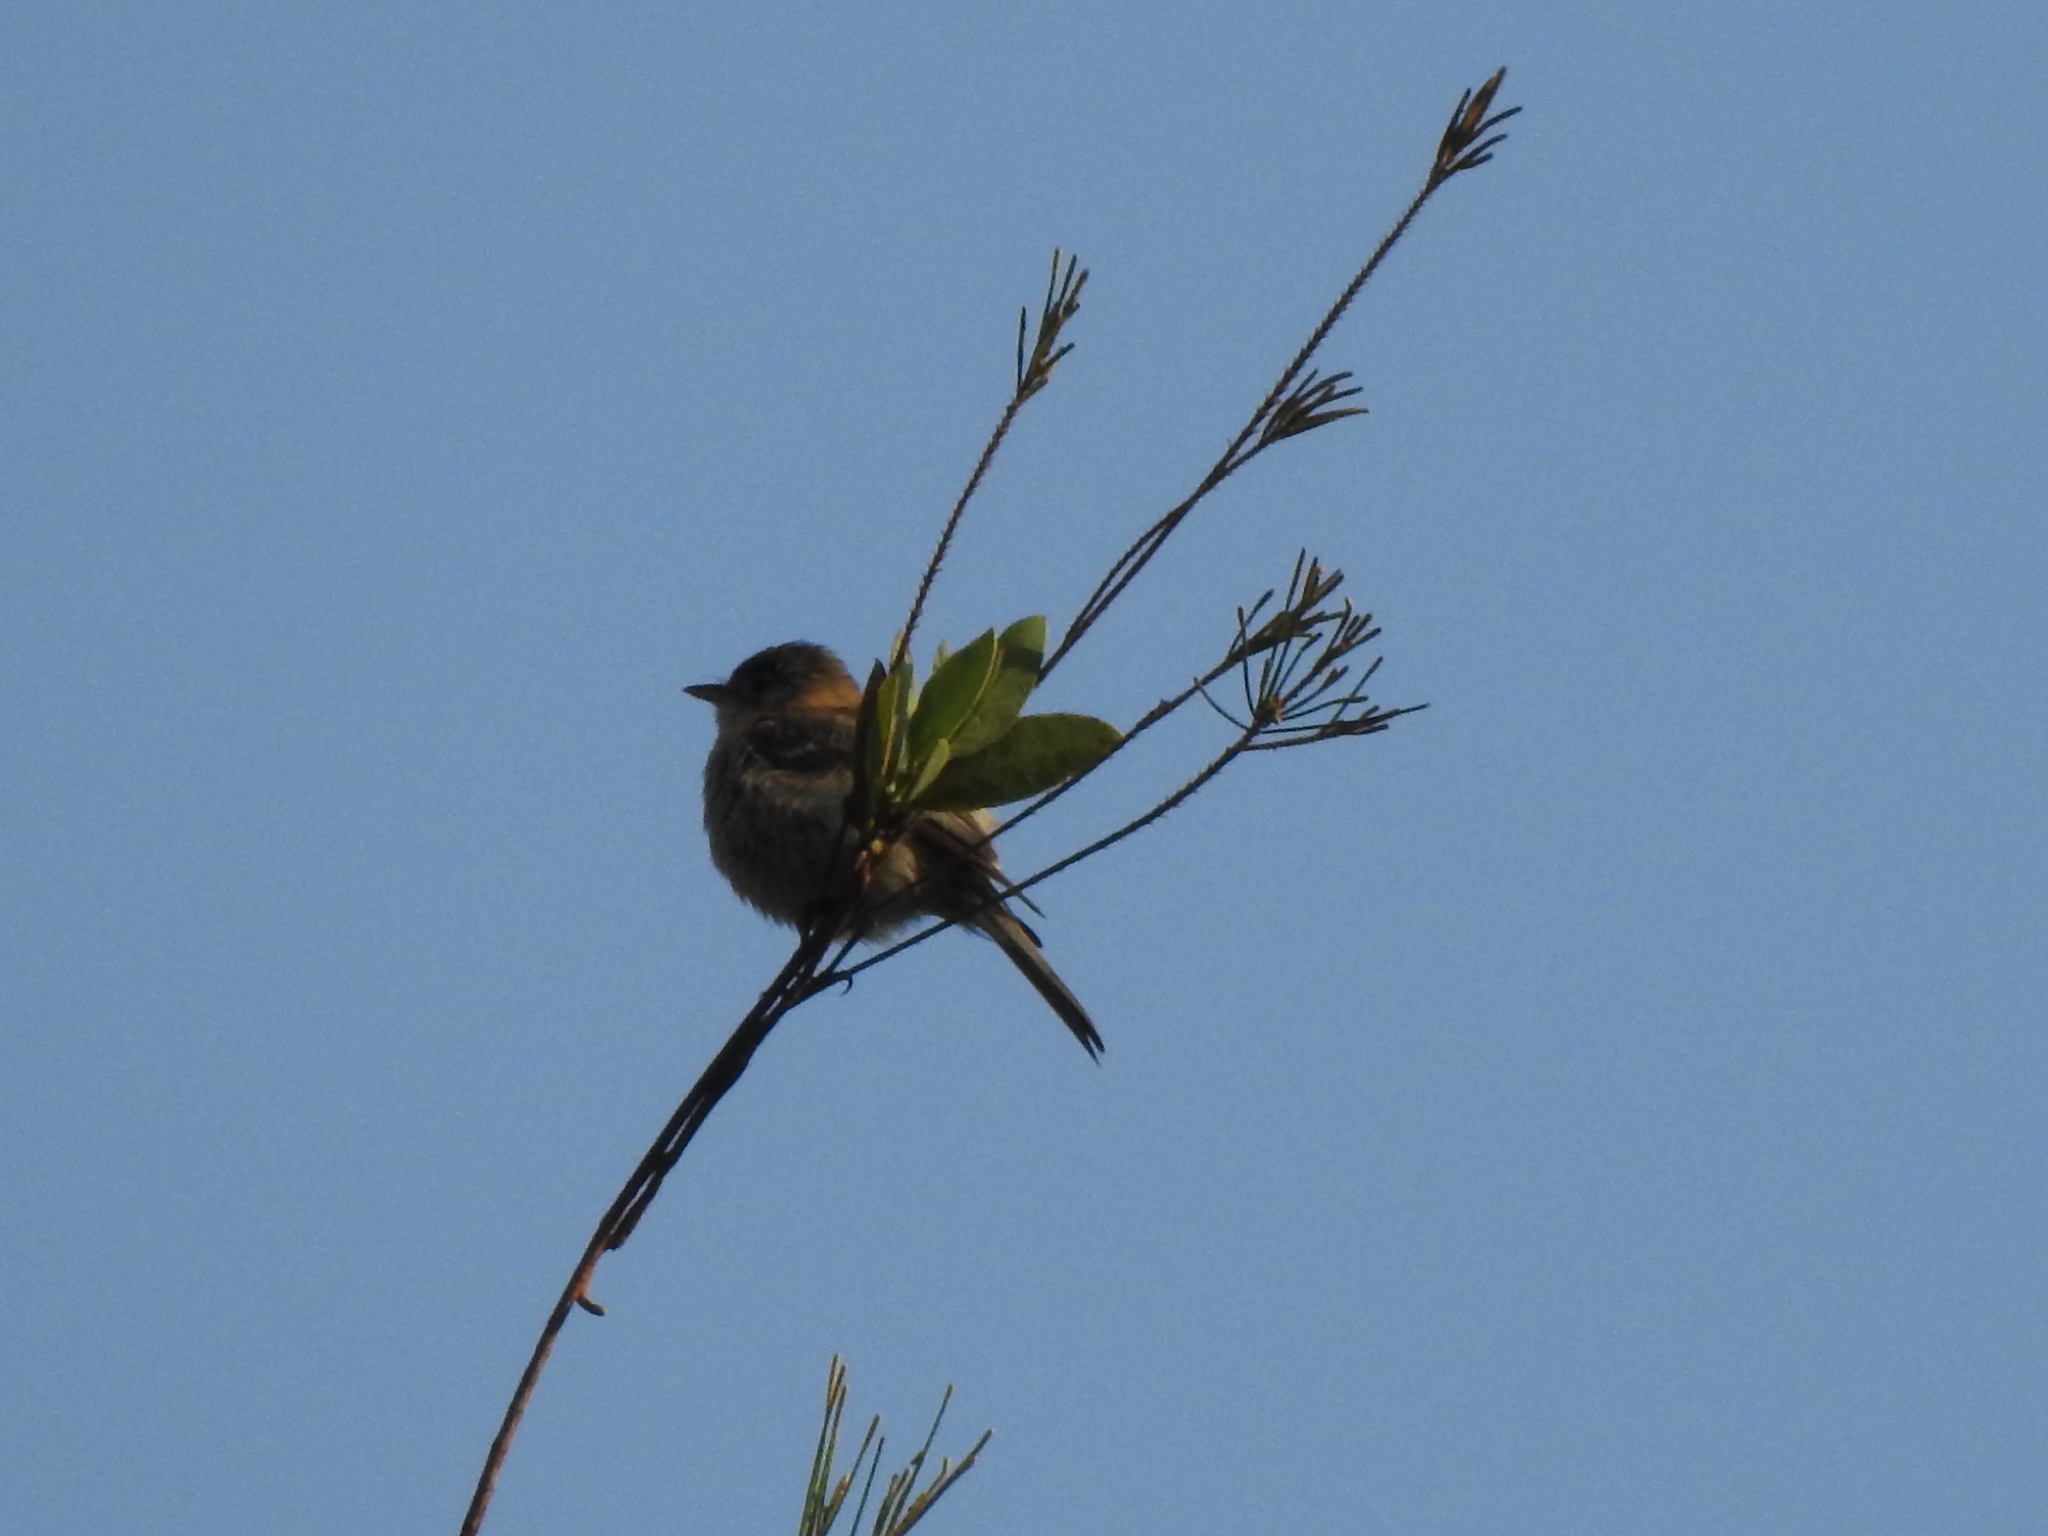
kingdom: Animalia
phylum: Chordata
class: Aves
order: Passeriformes
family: Tyrannidae
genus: Empidonax
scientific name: Empidonax fulvifrons
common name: Buff-breasted flycatcher
